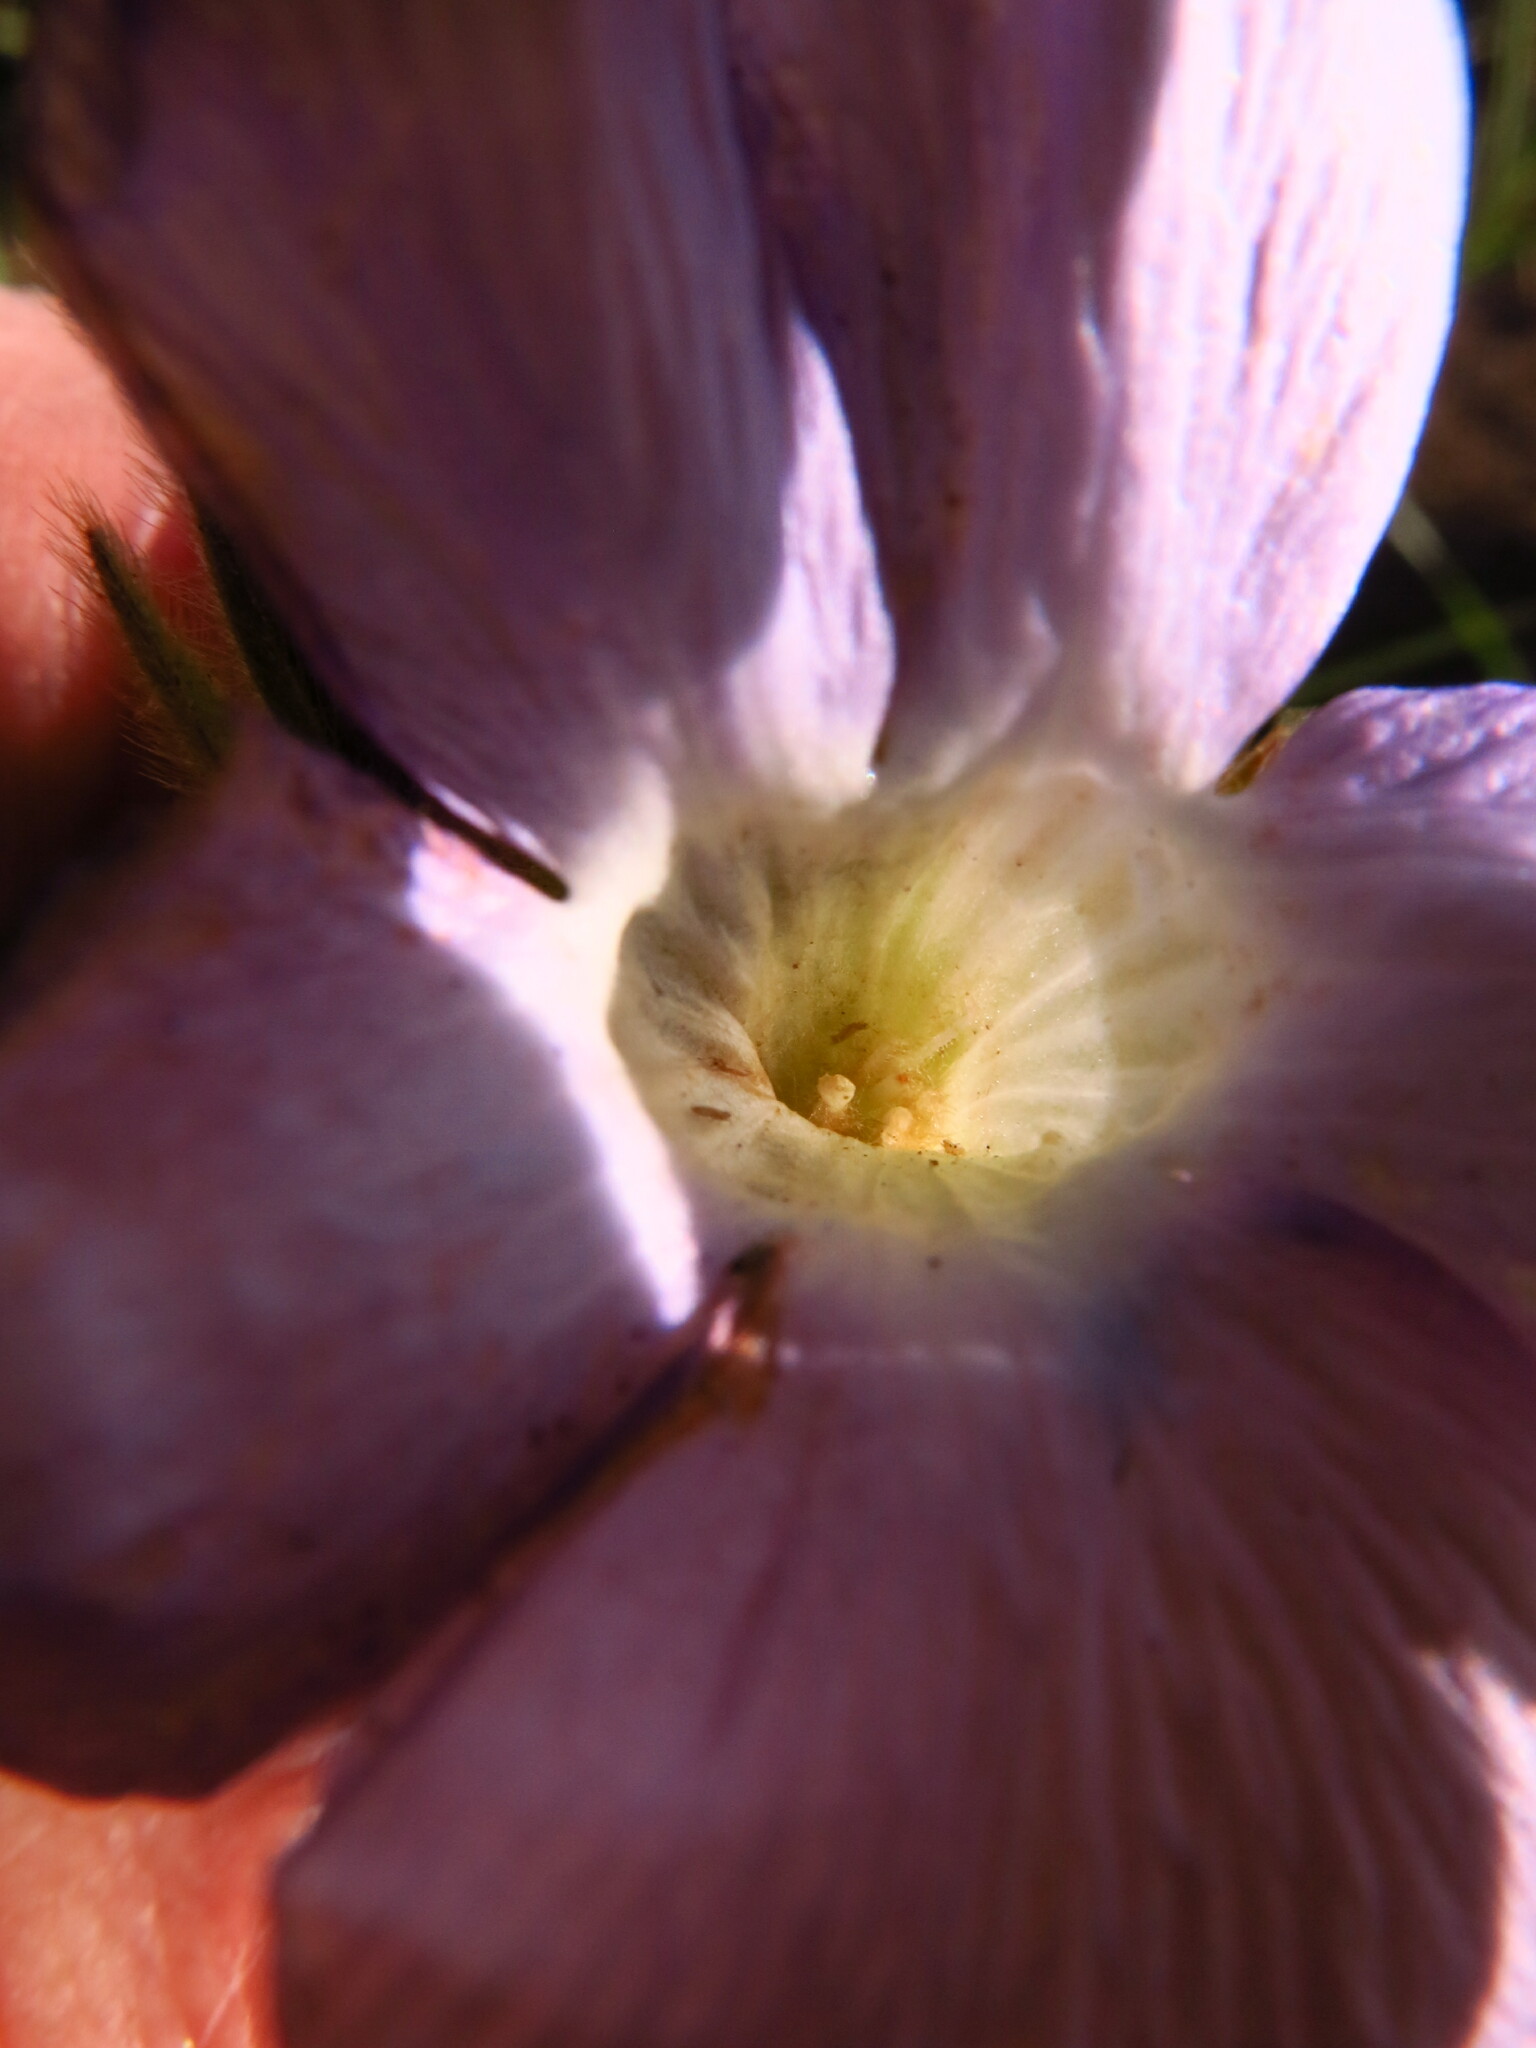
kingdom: Plantae
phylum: Tracheophyta
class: Magnoliopsida
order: Lamiales
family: Acanthaceae
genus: Barleria
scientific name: Barleria monticola
